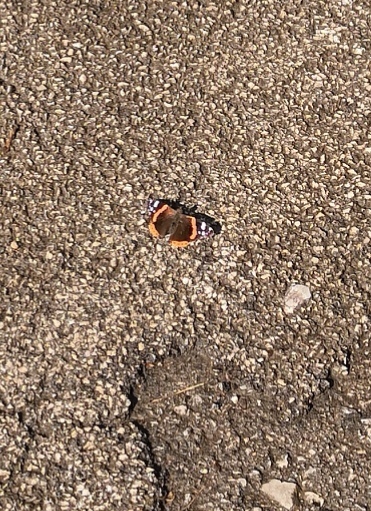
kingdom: Animalia
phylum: Arthropoda
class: Insecta
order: Lepidoptera
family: Nymphalidae
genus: Vanessa
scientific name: Vanessa atalanta
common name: Red admiral
